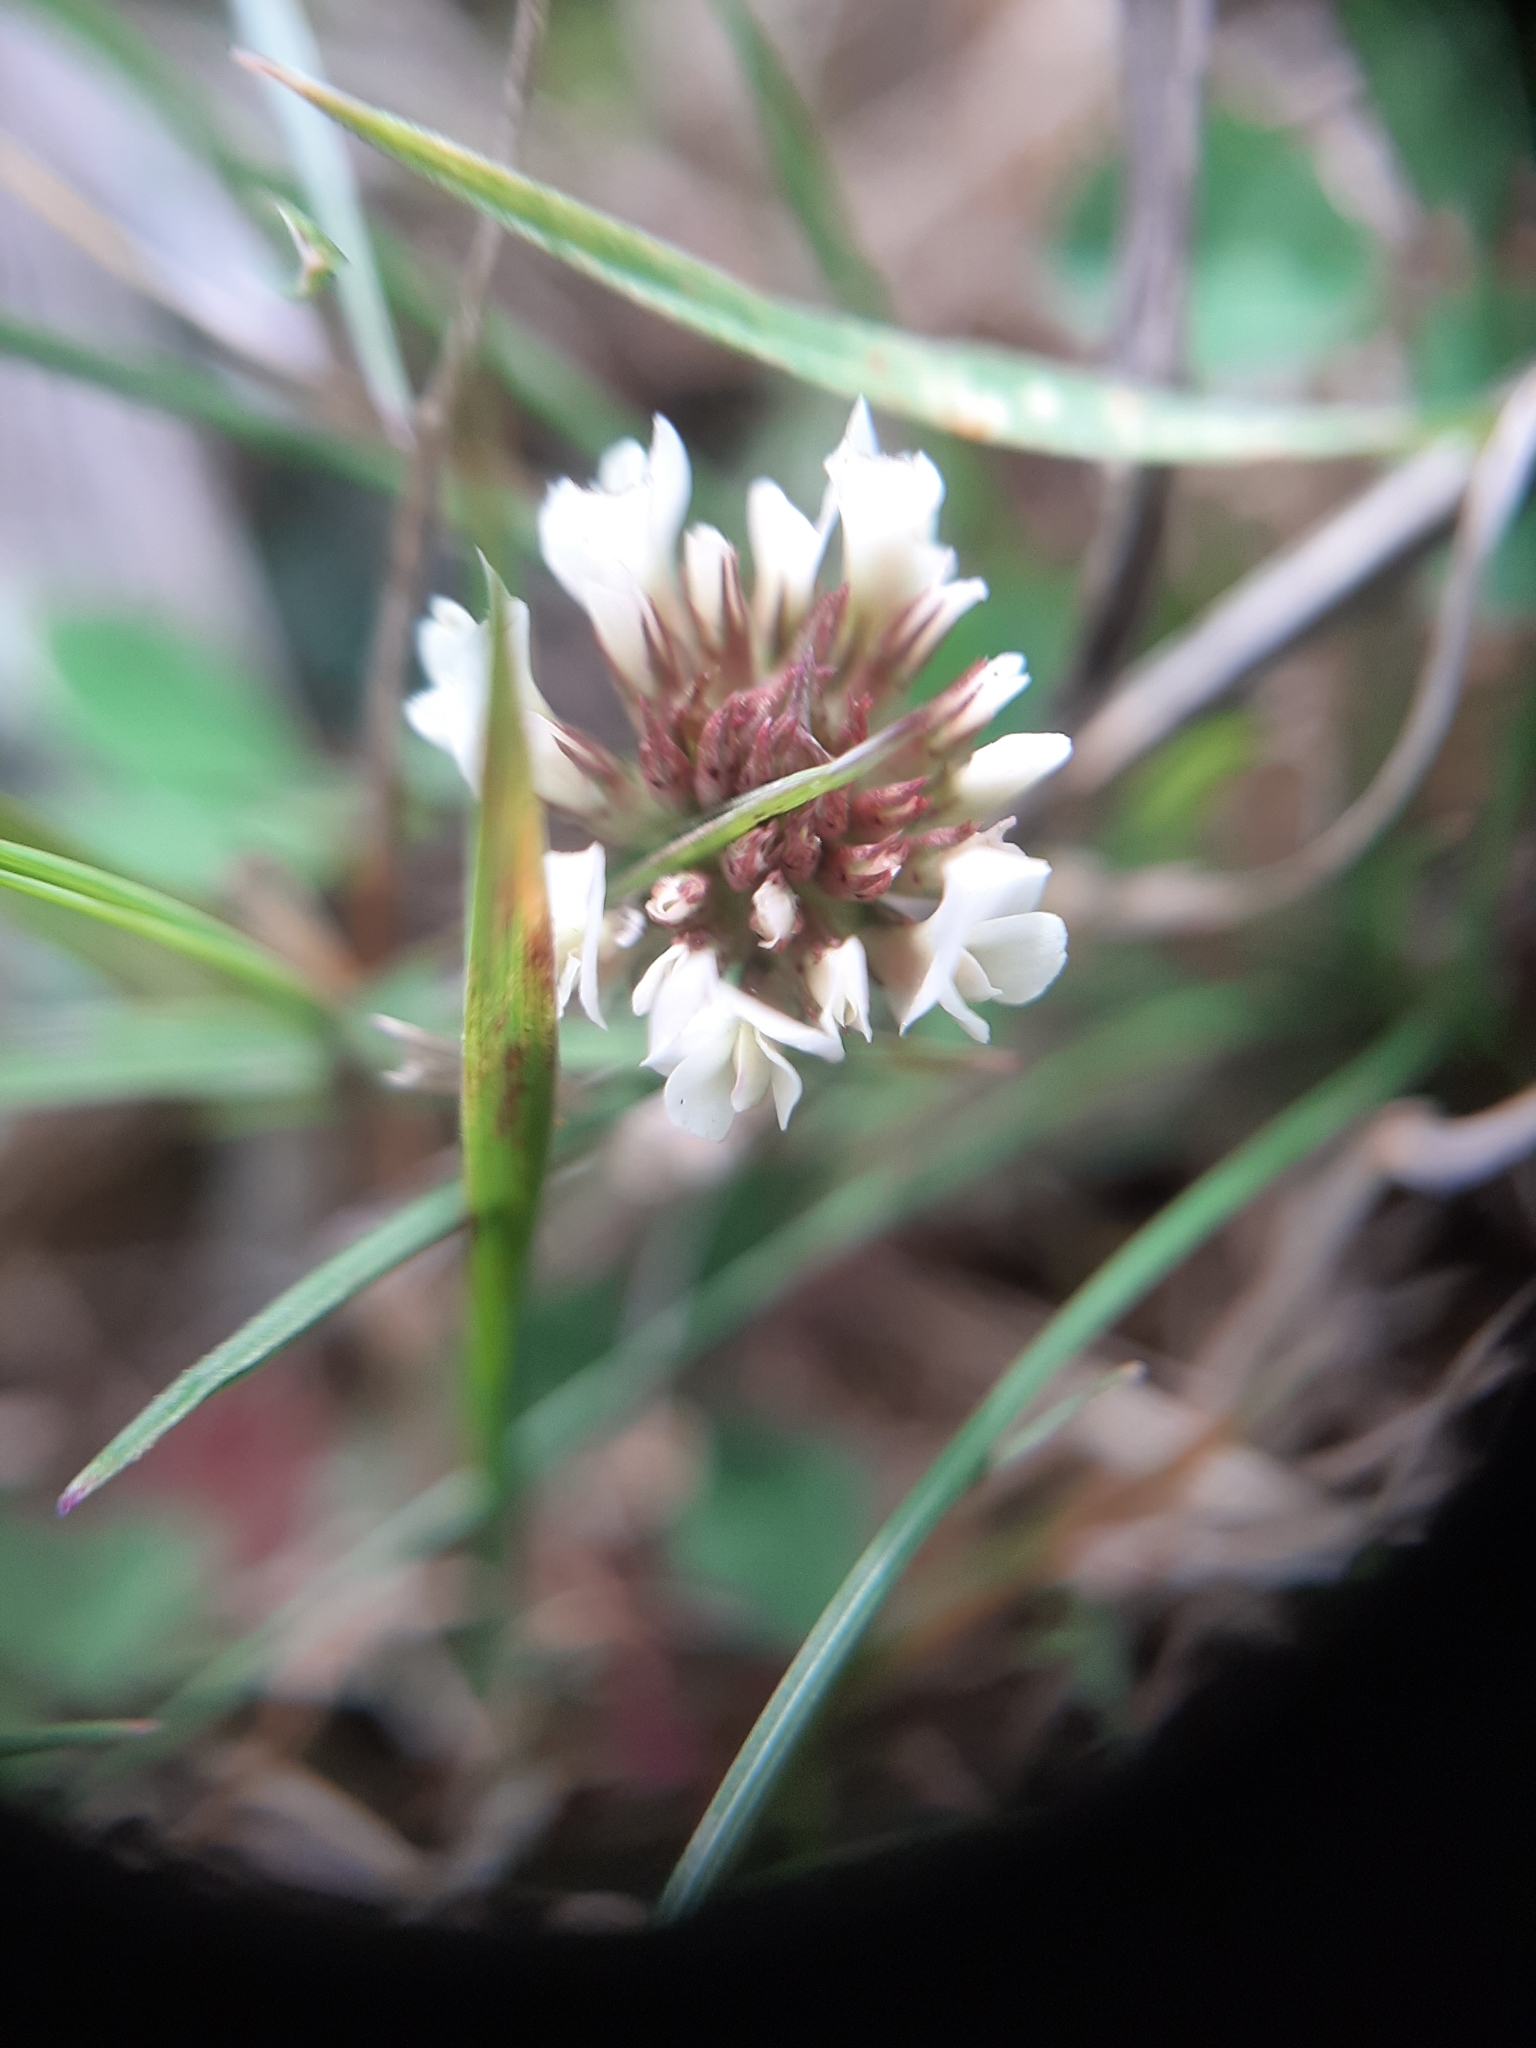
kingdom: Plantae
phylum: Tracheophyta
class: Magnoliopsida
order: Fabales
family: Fabaceae
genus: Trifolium
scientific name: Trifolium repens
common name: White clover
